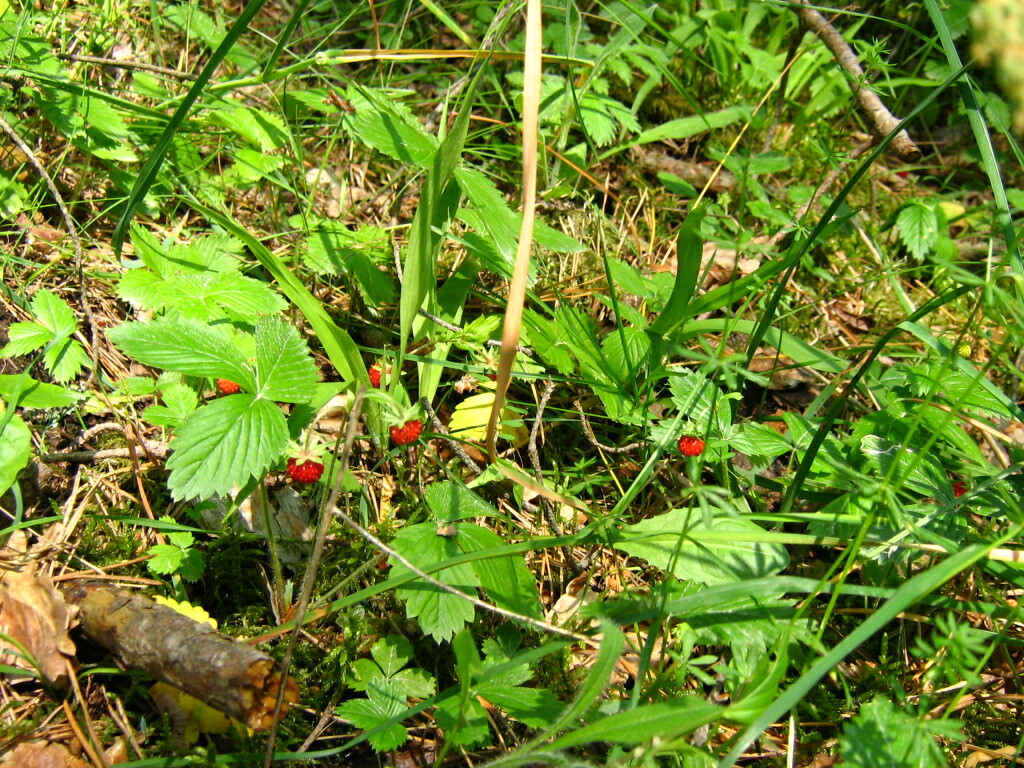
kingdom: Plantae
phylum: Tracheophyta
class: Magnoliopsida
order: Rosales
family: Rosaceae
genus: Fragaria
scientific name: Fragaria vesca
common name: Wild strawberry
